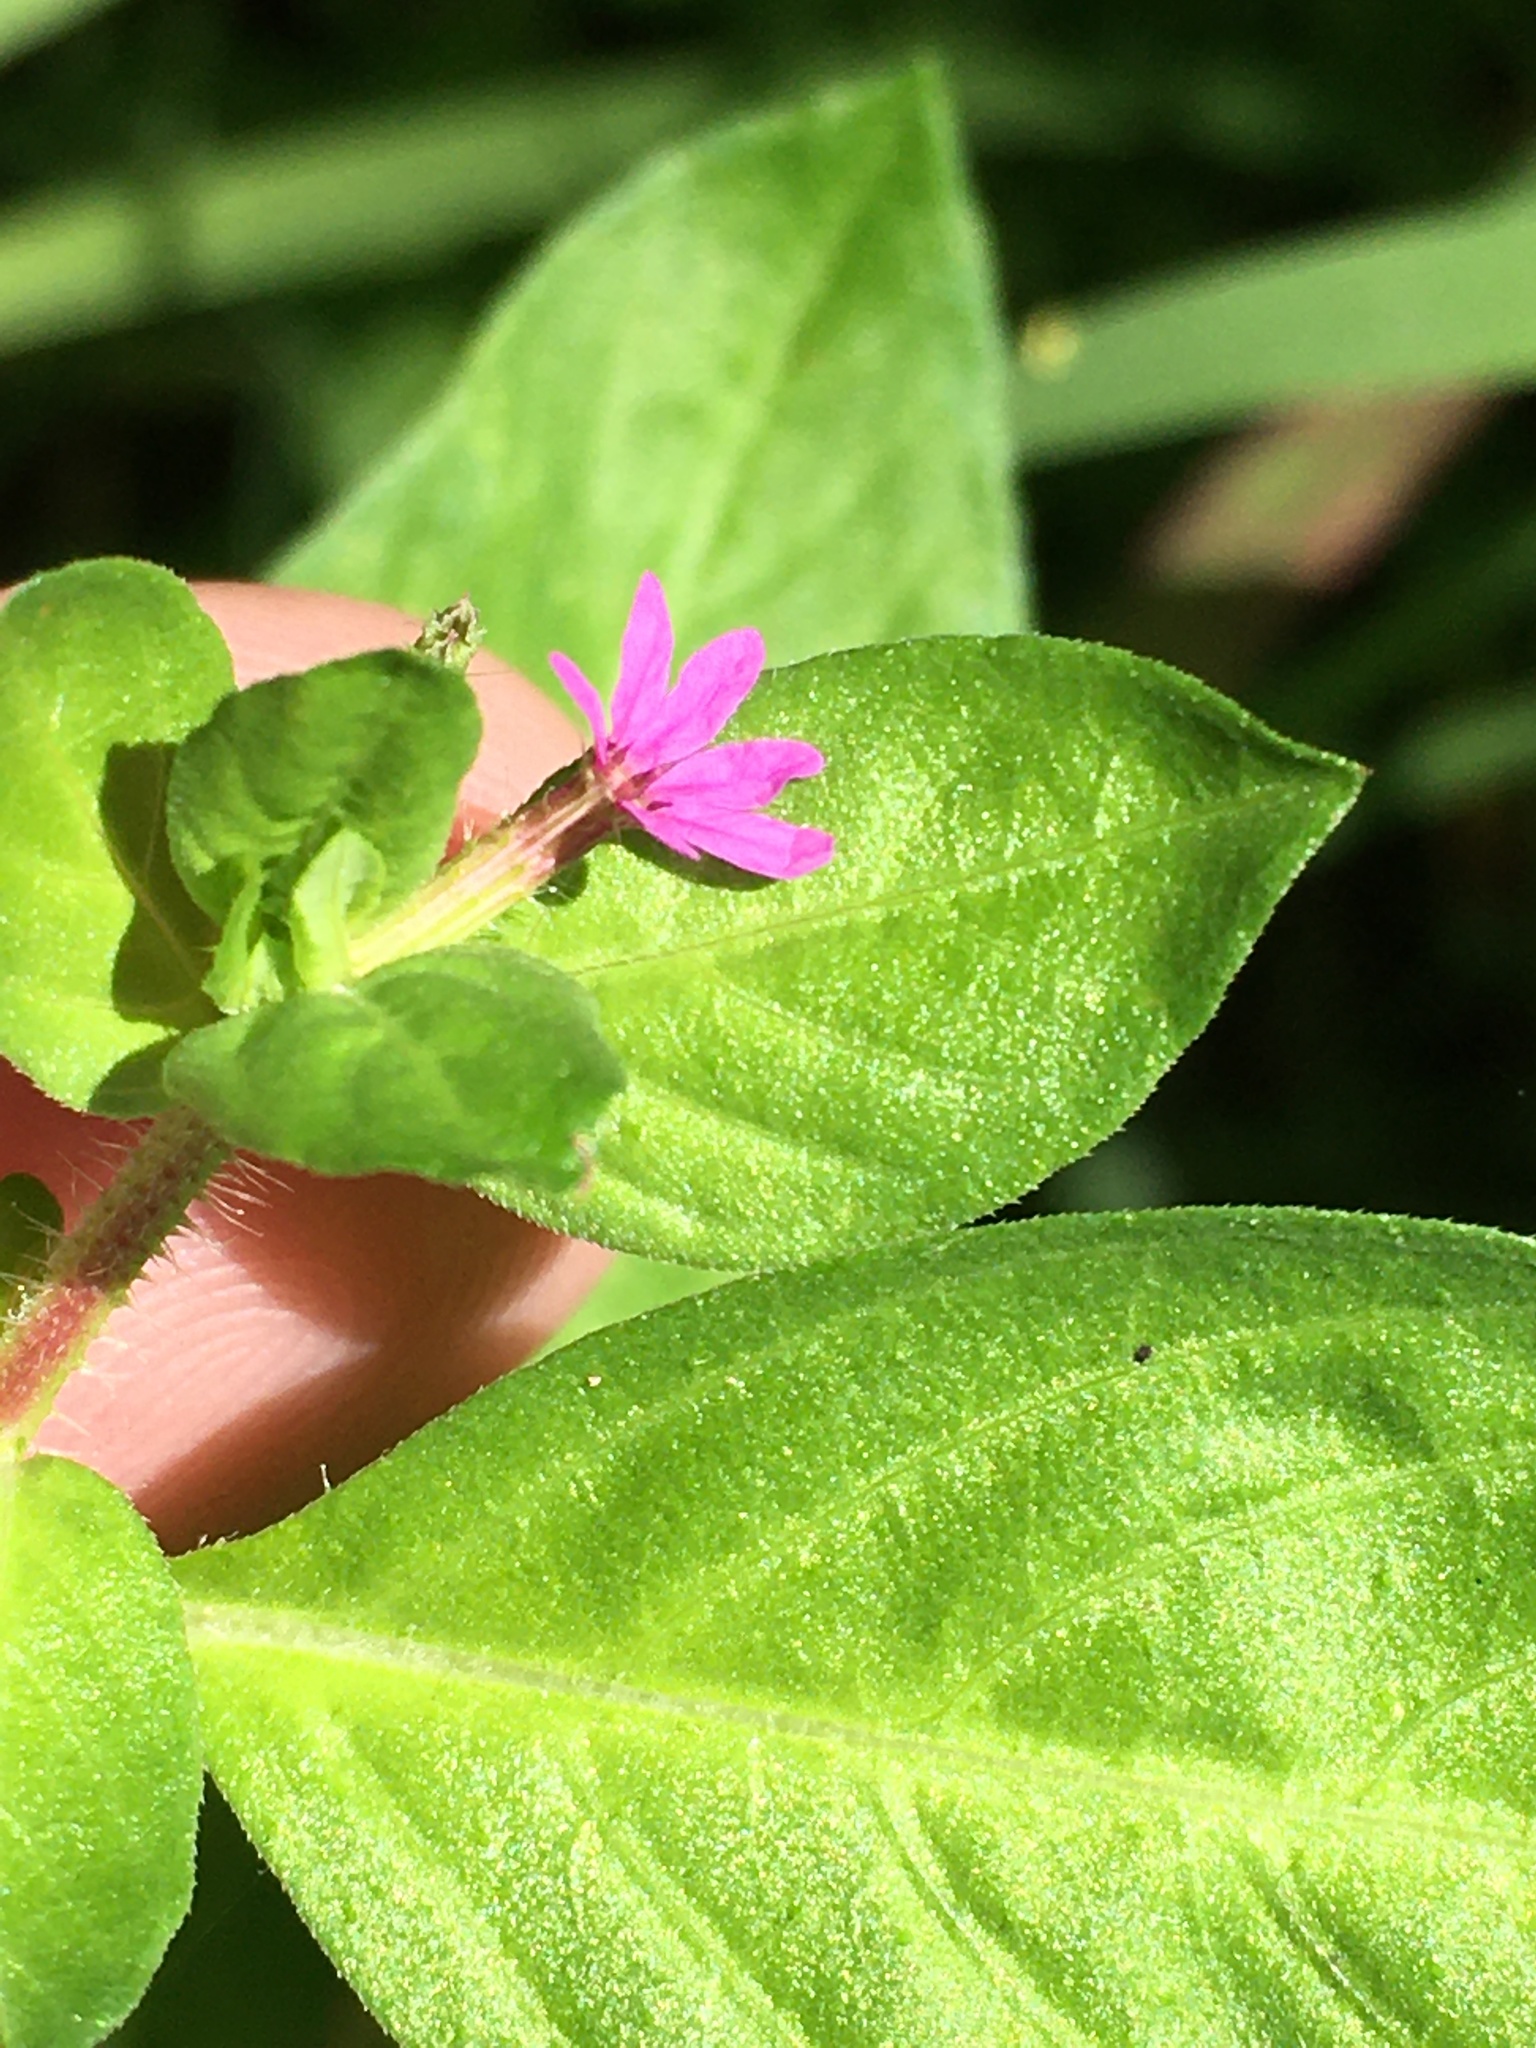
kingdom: Plantae
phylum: Tracheophyta
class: Magnoliopsida
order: Myrtales
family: Lythraceae
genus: Cuphea
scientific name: Cuphea carthagenensis
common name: Colombian waxweed
